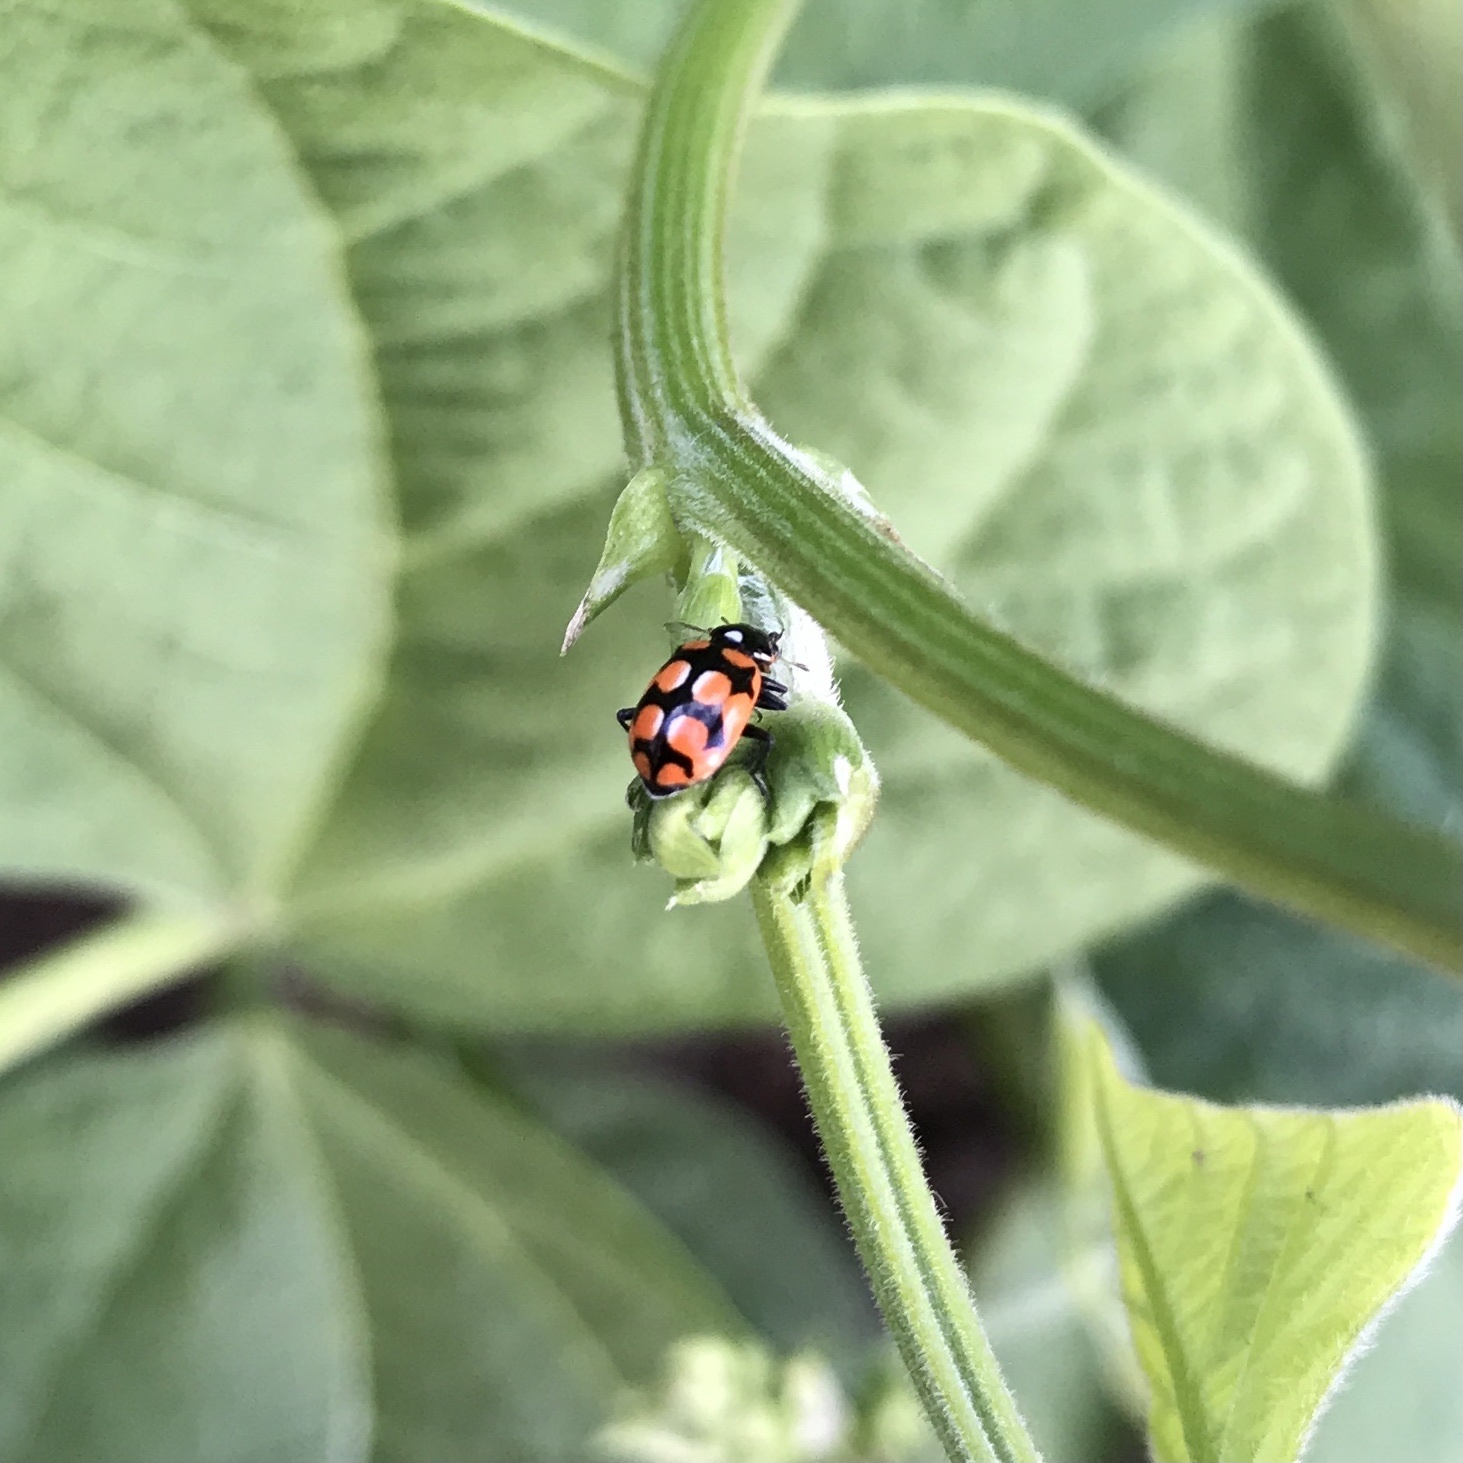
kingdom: Animalia
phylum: Arthropoda
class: Insecta
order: Coleoptera
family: Coccinellidae
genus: Eriopis
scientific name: Eriopis chilensis
